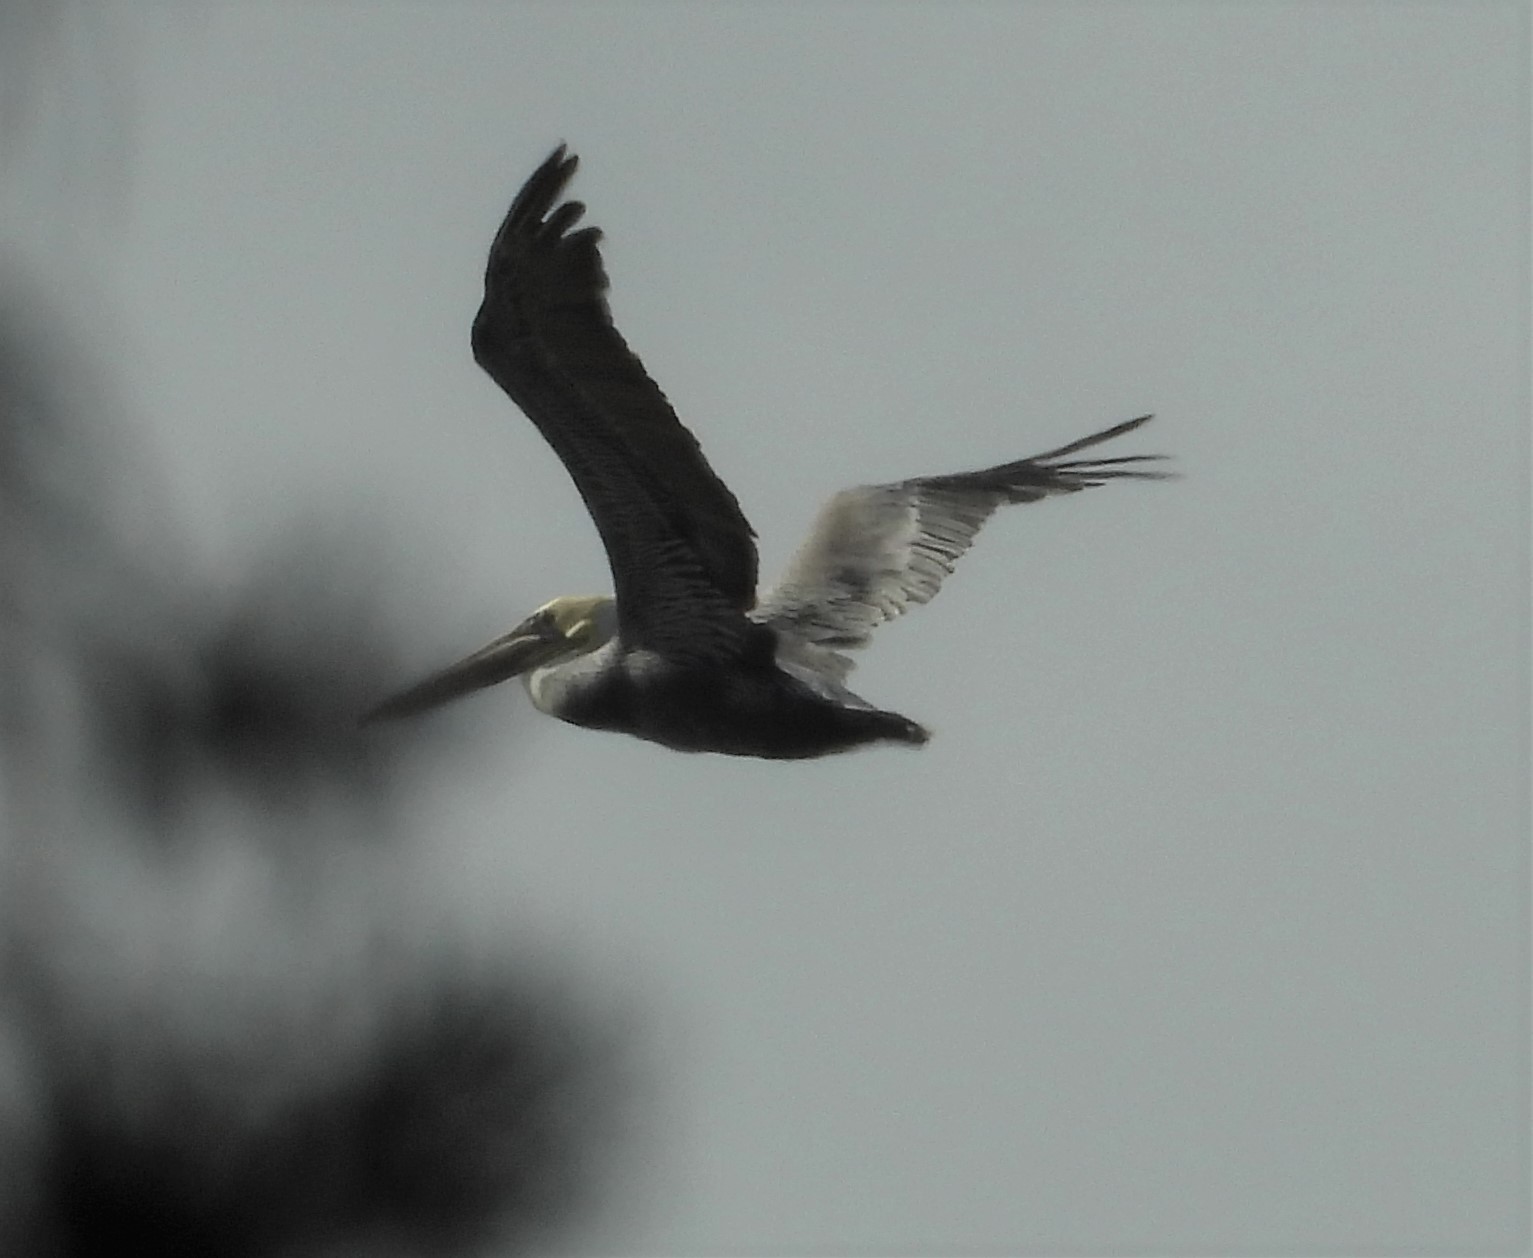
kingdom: Animalia
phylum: Chordata
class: Aves
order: Pelecaniformes
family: Pelecanidae
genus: Pelecanus
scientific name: Pelecanus occidentalis
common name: Brown pelican
